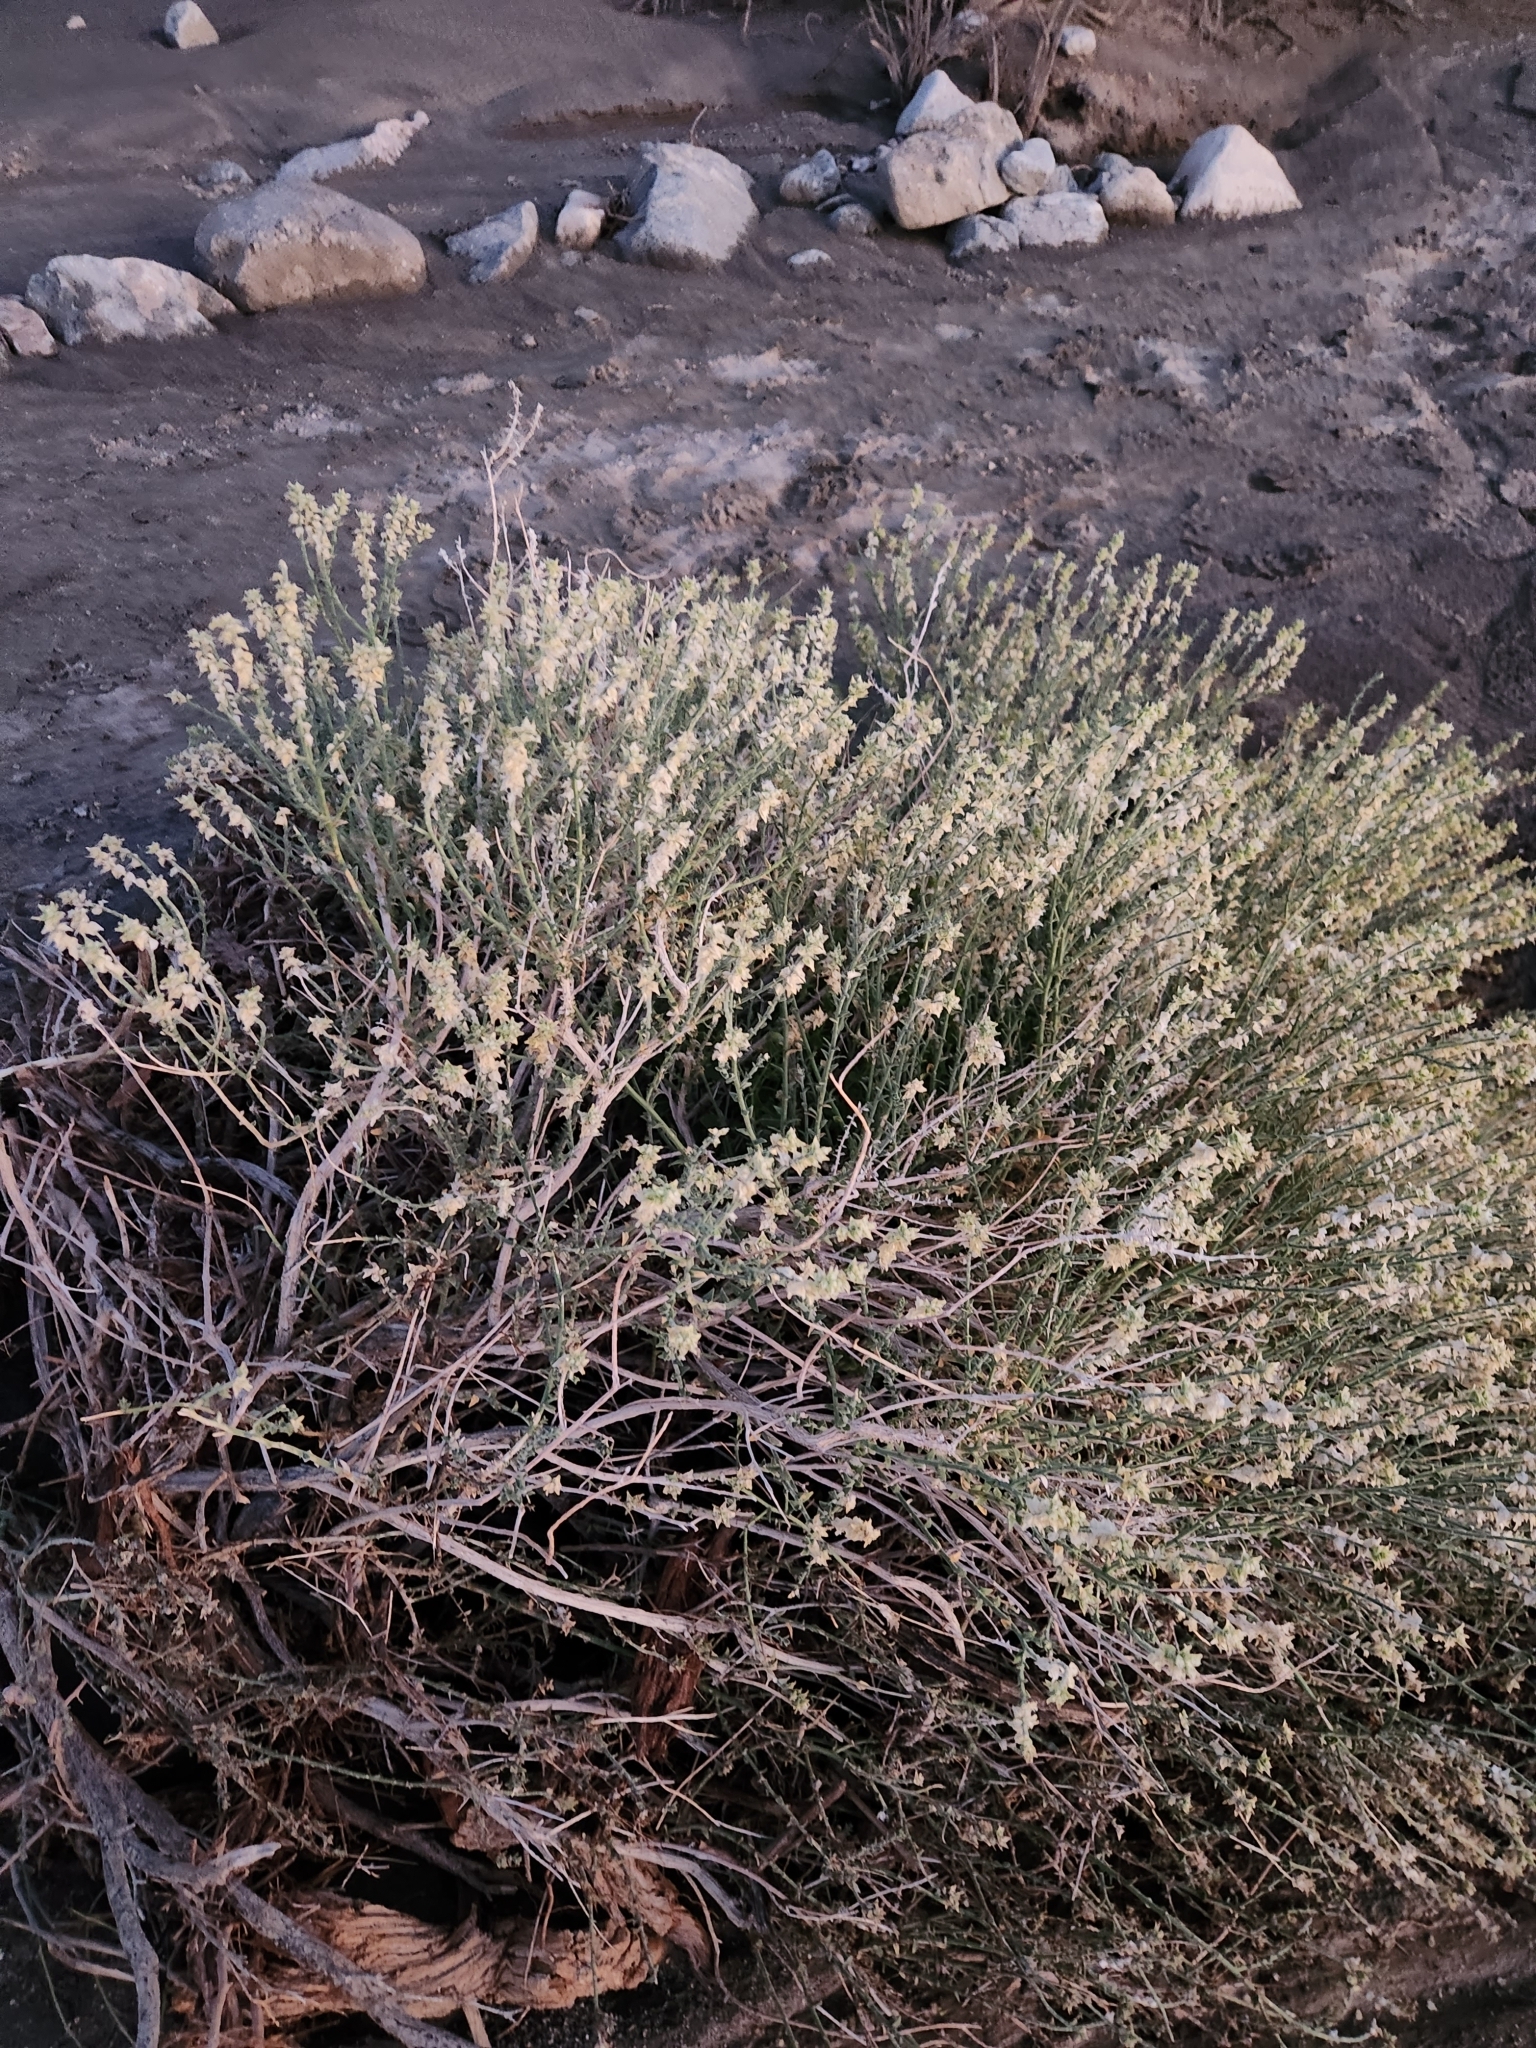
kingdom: Plantae
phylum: Tracheophyta
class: Magnoliopsida
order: Cornales
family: Loasaceae
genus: Petalonyx
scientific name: Petalonyx thurberi
